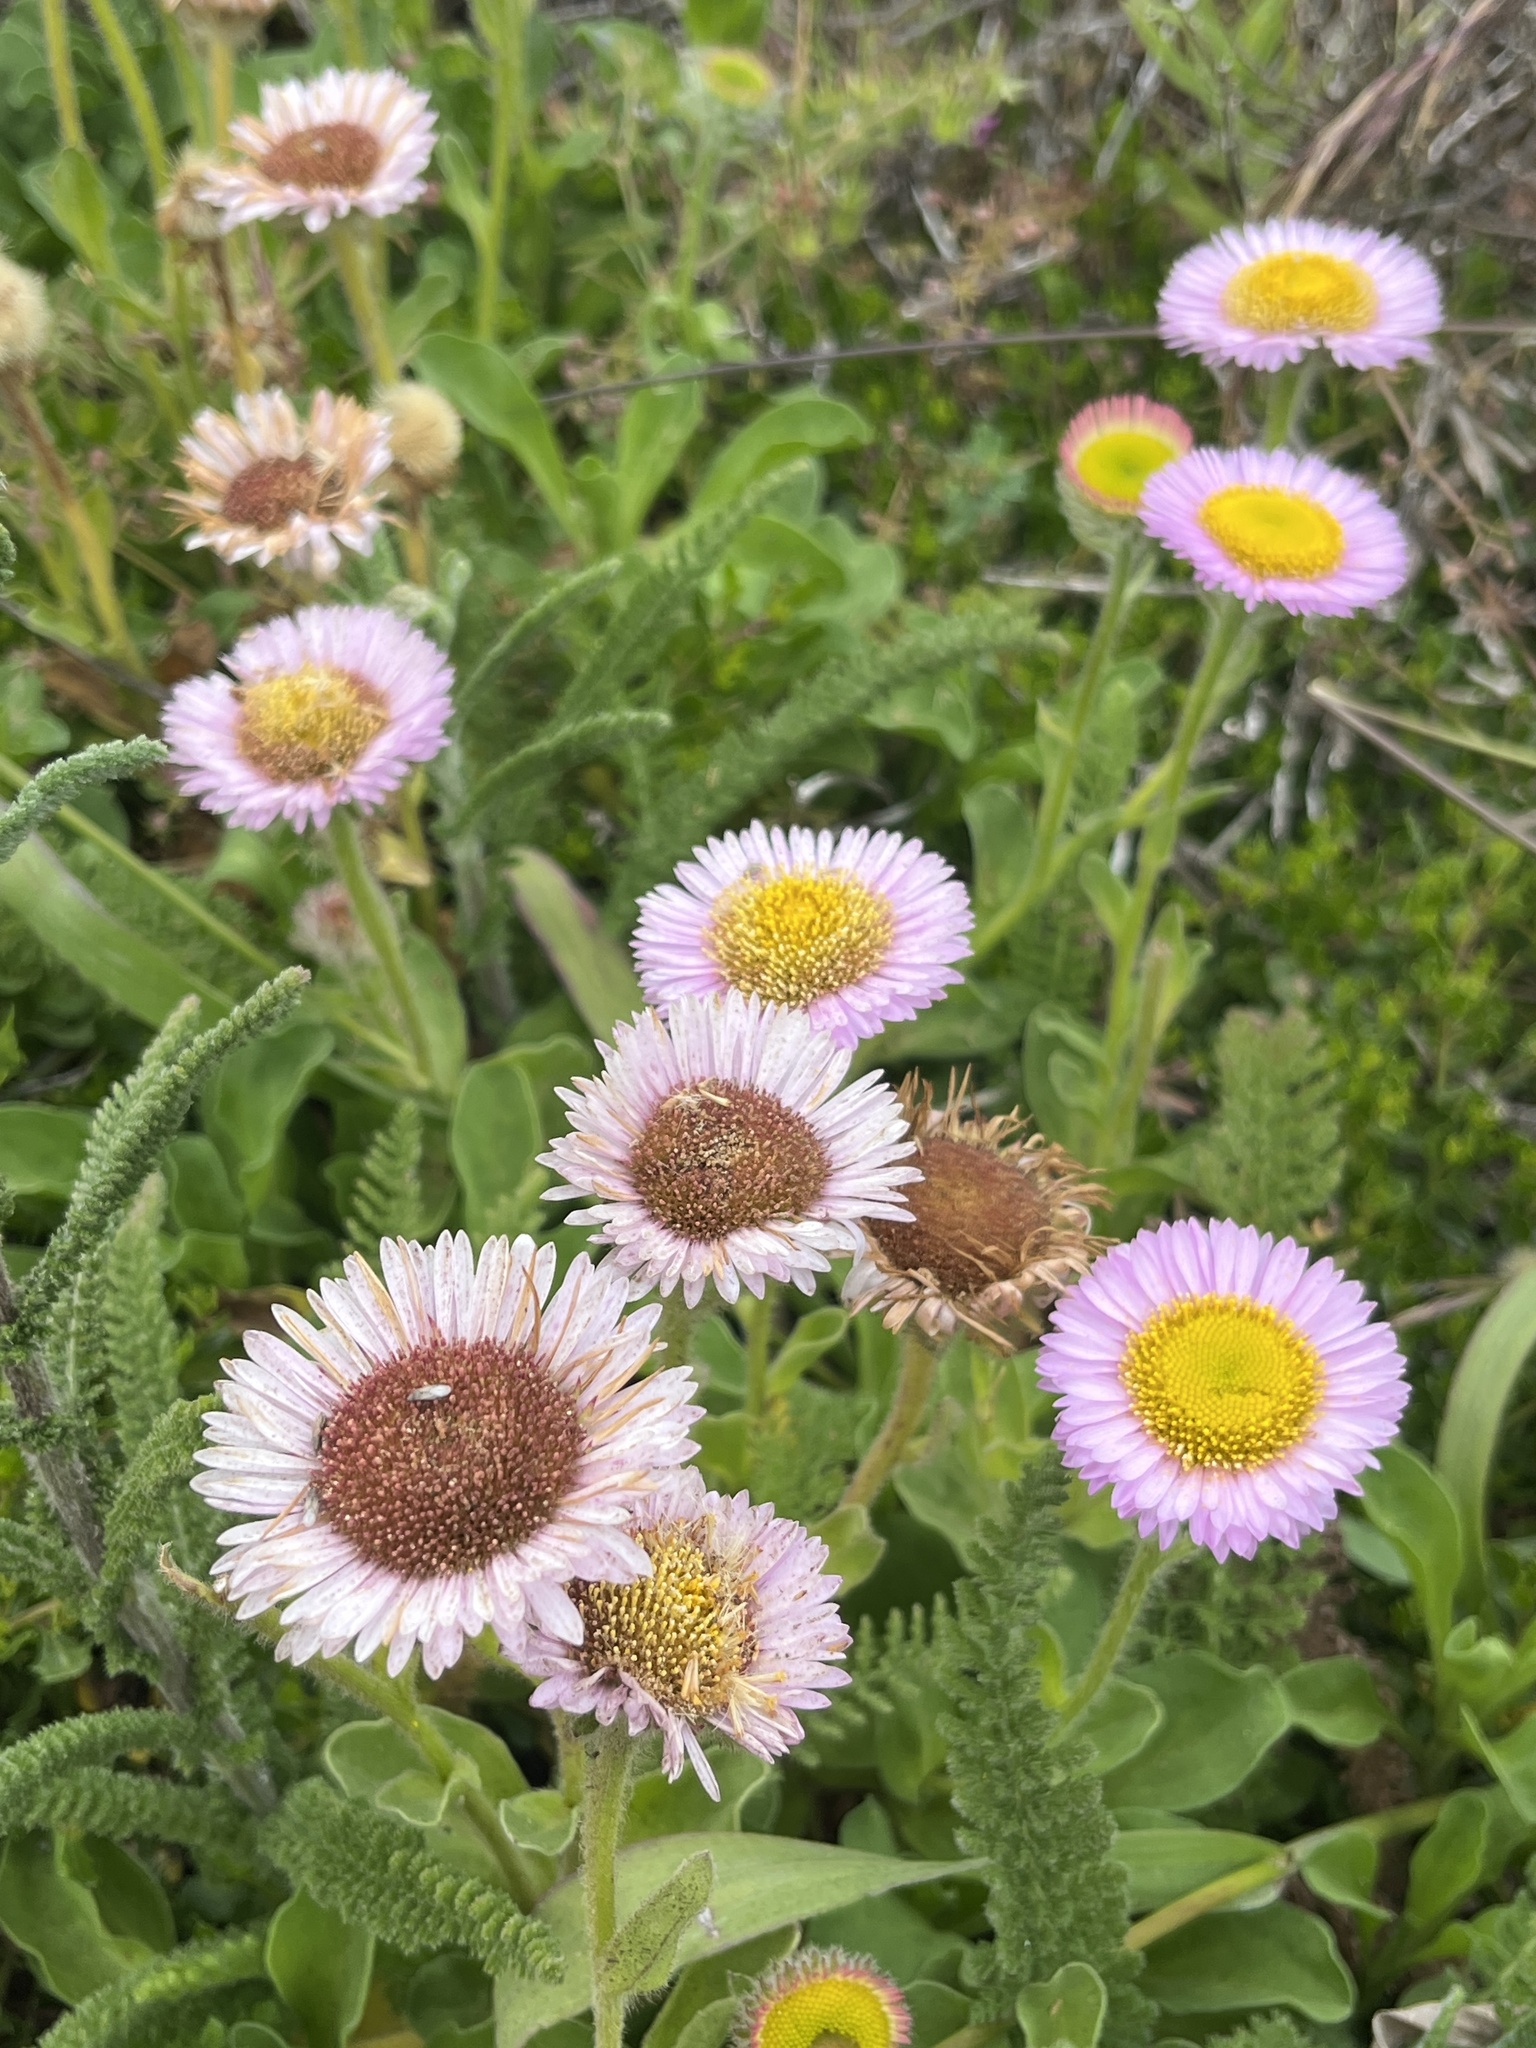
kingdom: Plantae
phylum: Tracheophyta
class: Magnoliopsida
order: Asterales
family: Asteraceae
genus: Erigeron
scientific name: Erigeron glaucus
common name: Seaside daisy
